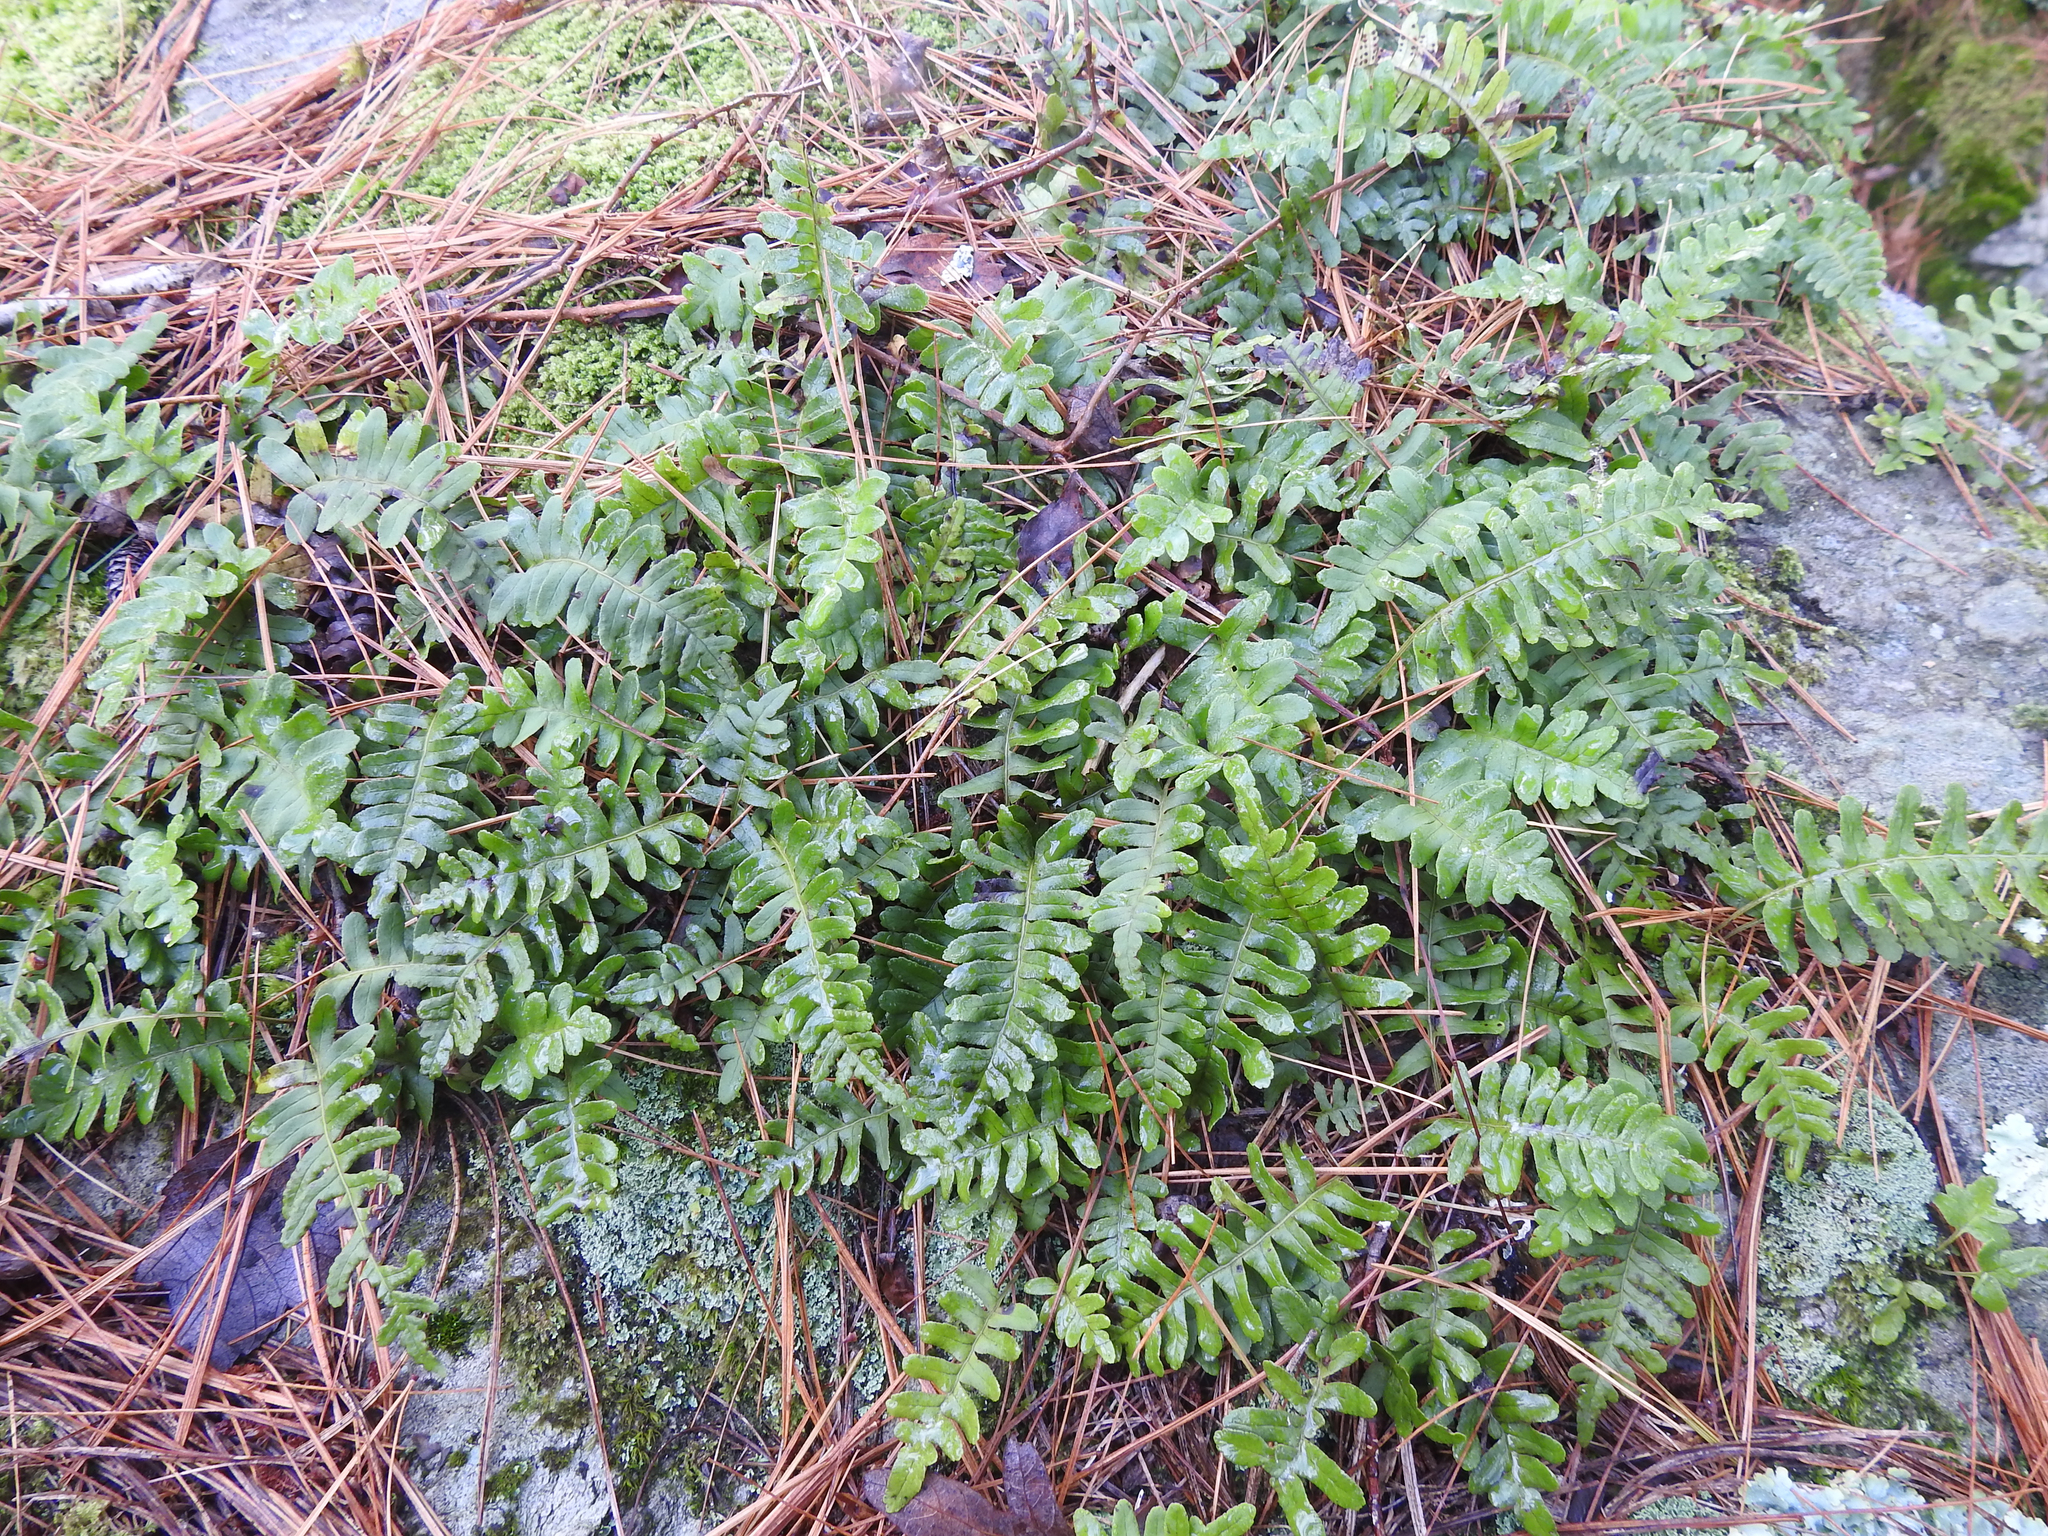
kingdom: Plantae
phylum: Tracheophyta
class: Polypodiopsida
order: Polypodiales
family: Polypodiaceae
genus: Polypodium
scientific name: Polypodium virginianum
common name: American wall fern
